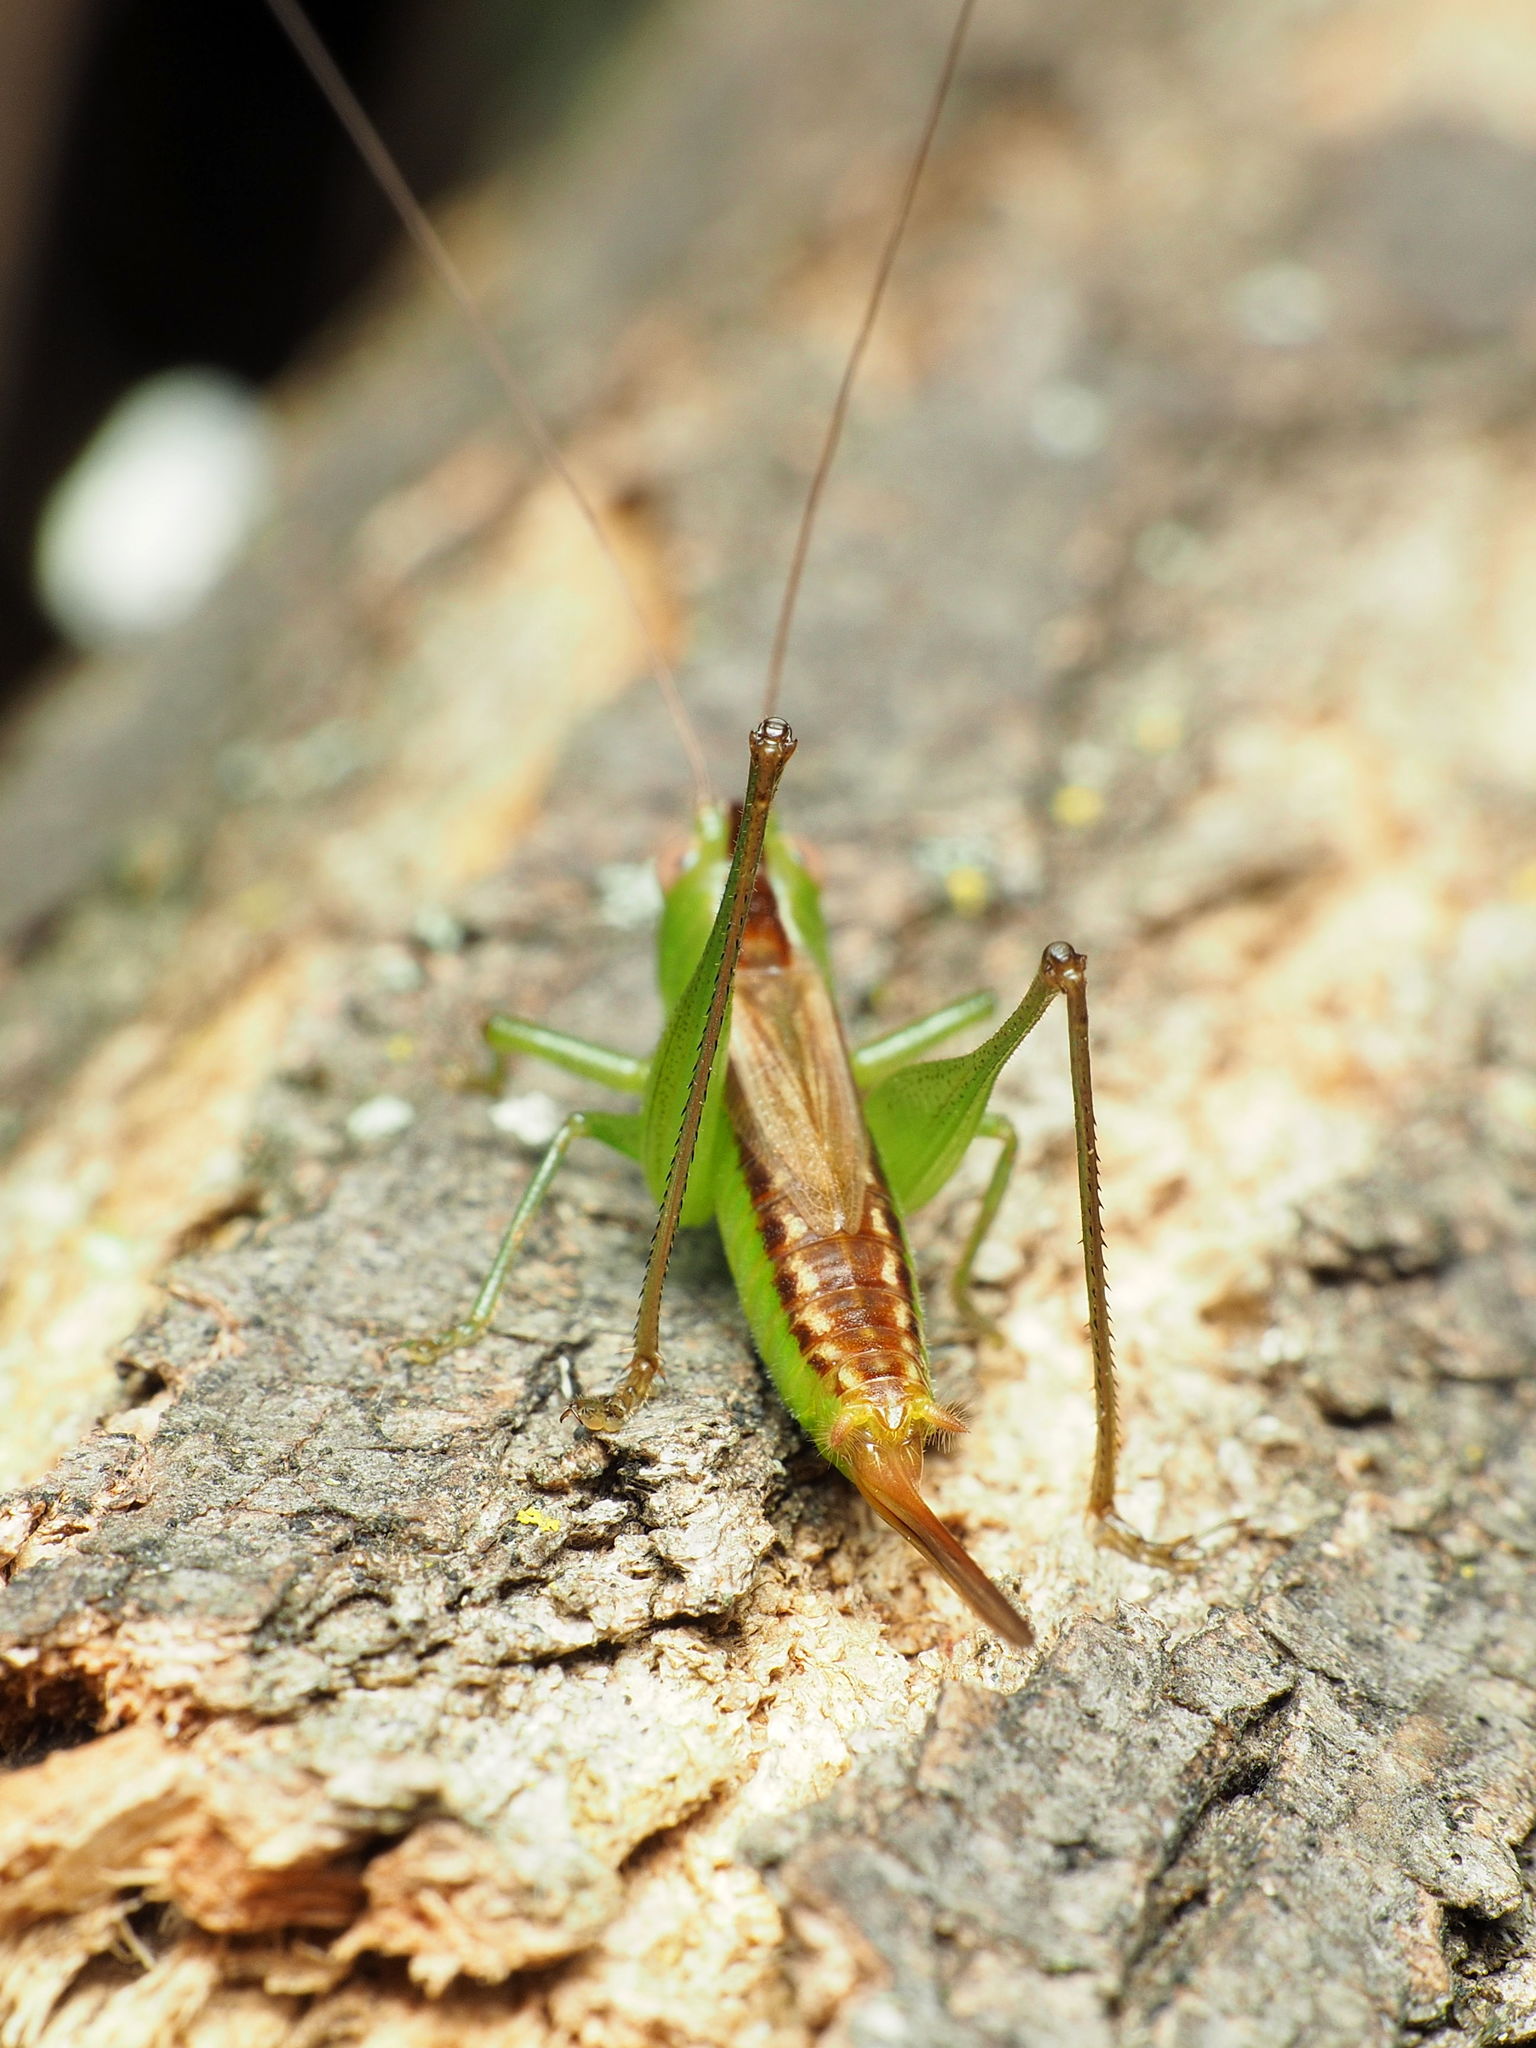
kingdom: Animalia
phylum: Arthropoda
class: Insecta
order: Orthoptera
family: Tettigoniidae
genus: Conocephalus
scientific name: Conocephalus brevipennis
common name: Short-winged meadow katydid
